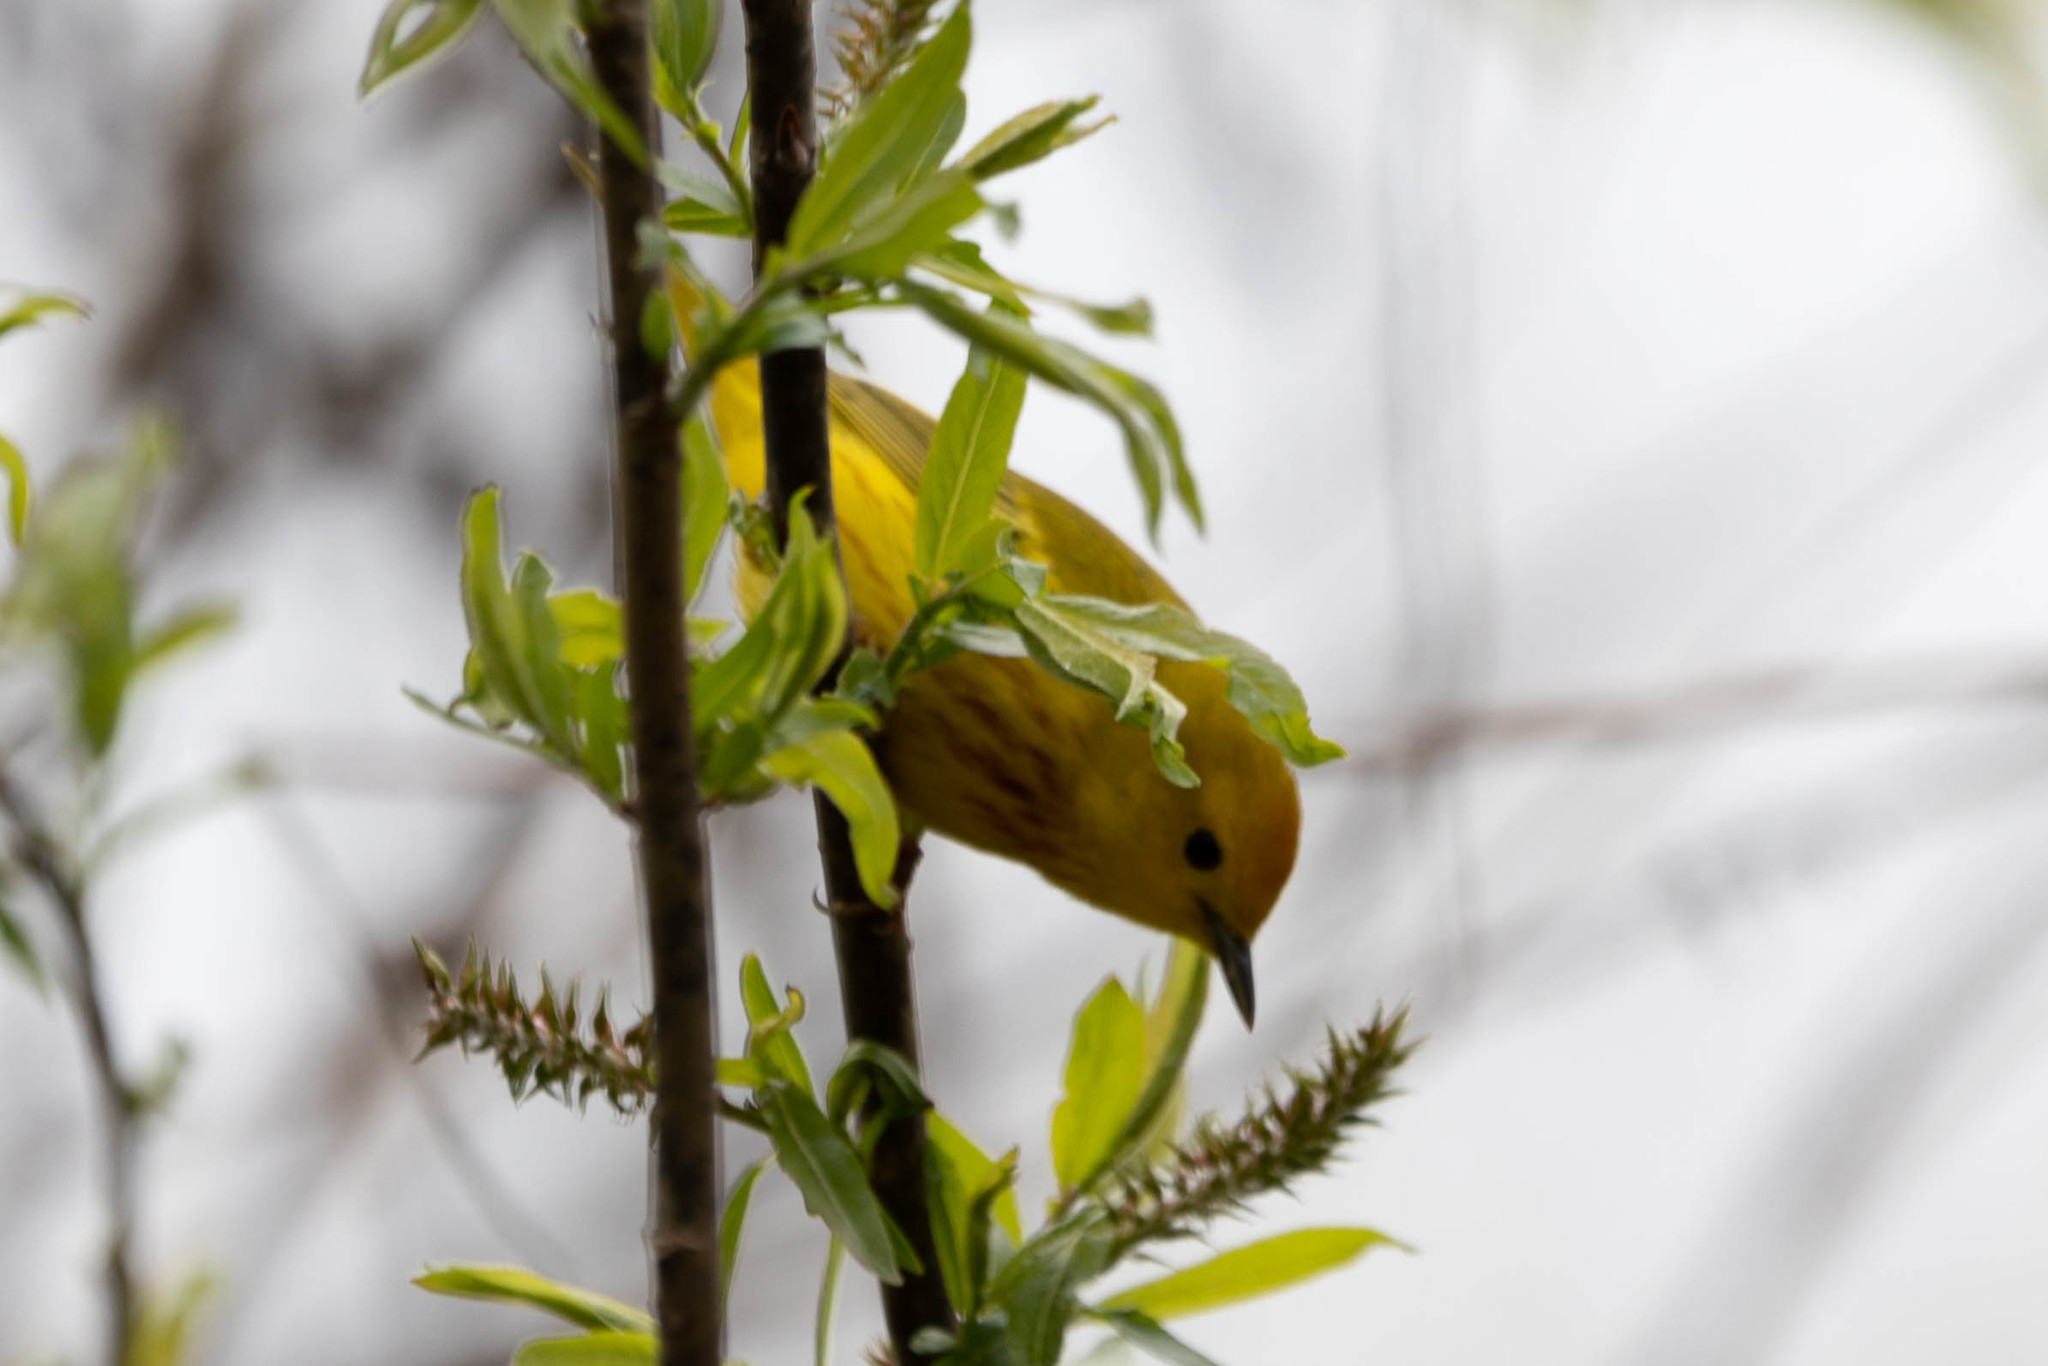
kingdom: Animalia
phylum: Chordata
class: Aves
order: Passeriformes
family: Parulidae
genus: Setophaga
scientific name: Setophaga petechia
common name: Yellow warbler
